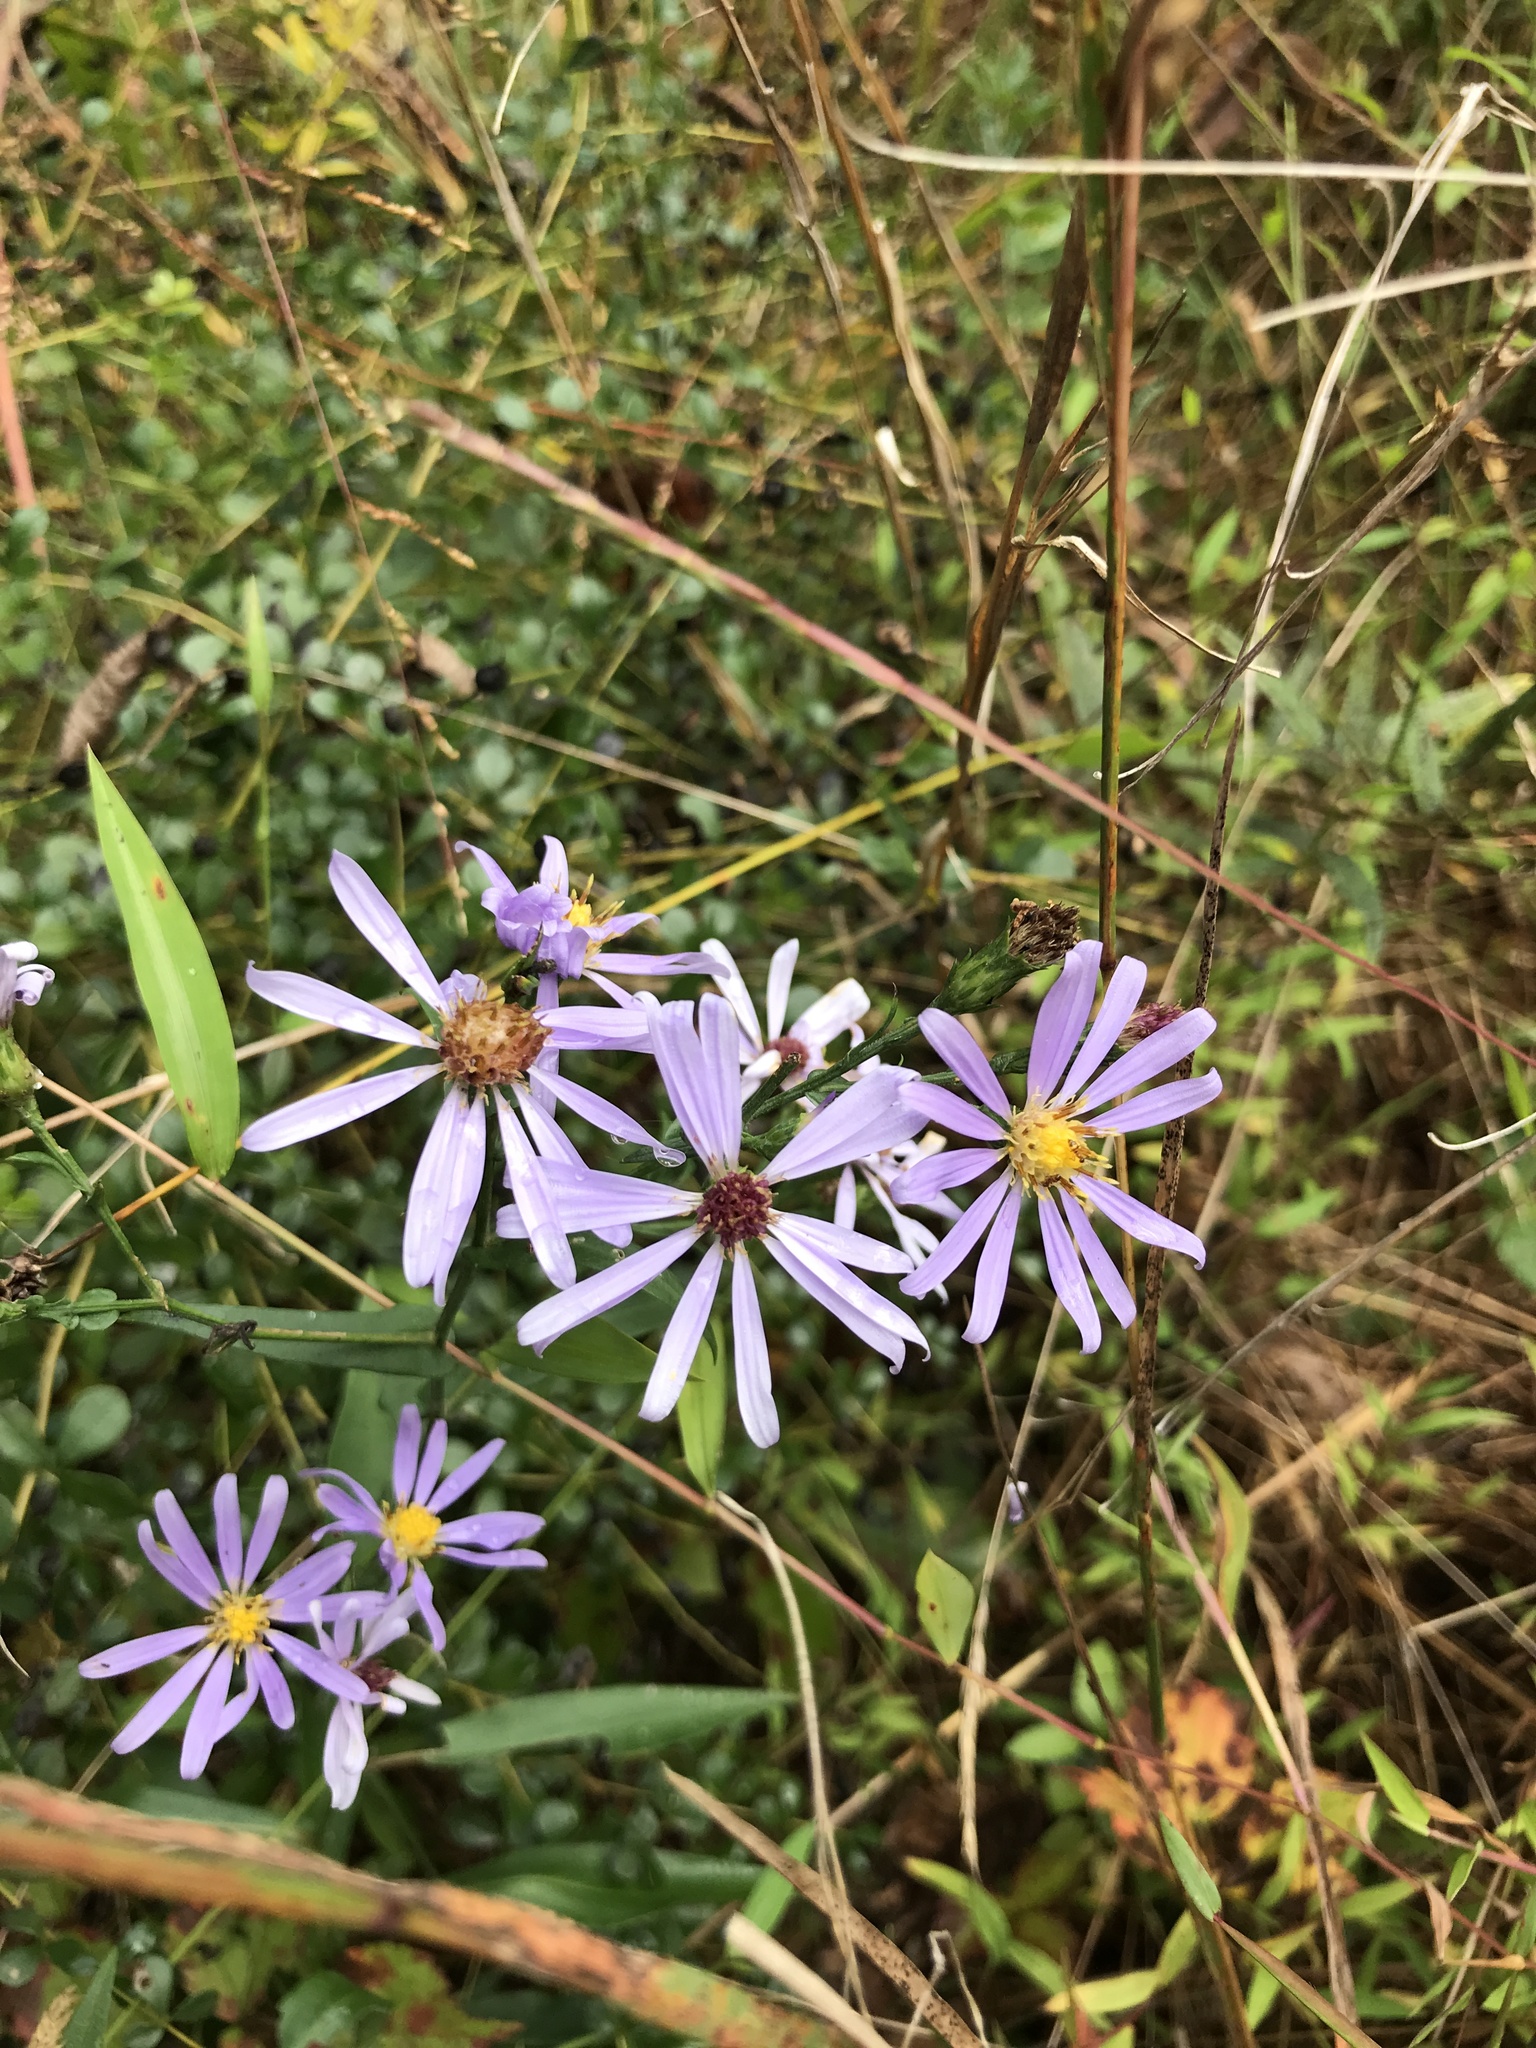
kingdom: Plantae
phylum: Tracheophyta
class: Magnoliopsida
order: Asterales
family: Asteraceae
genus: Symphyotrichum
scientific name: Symphyotrichum laeve
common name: Glaucous aster
